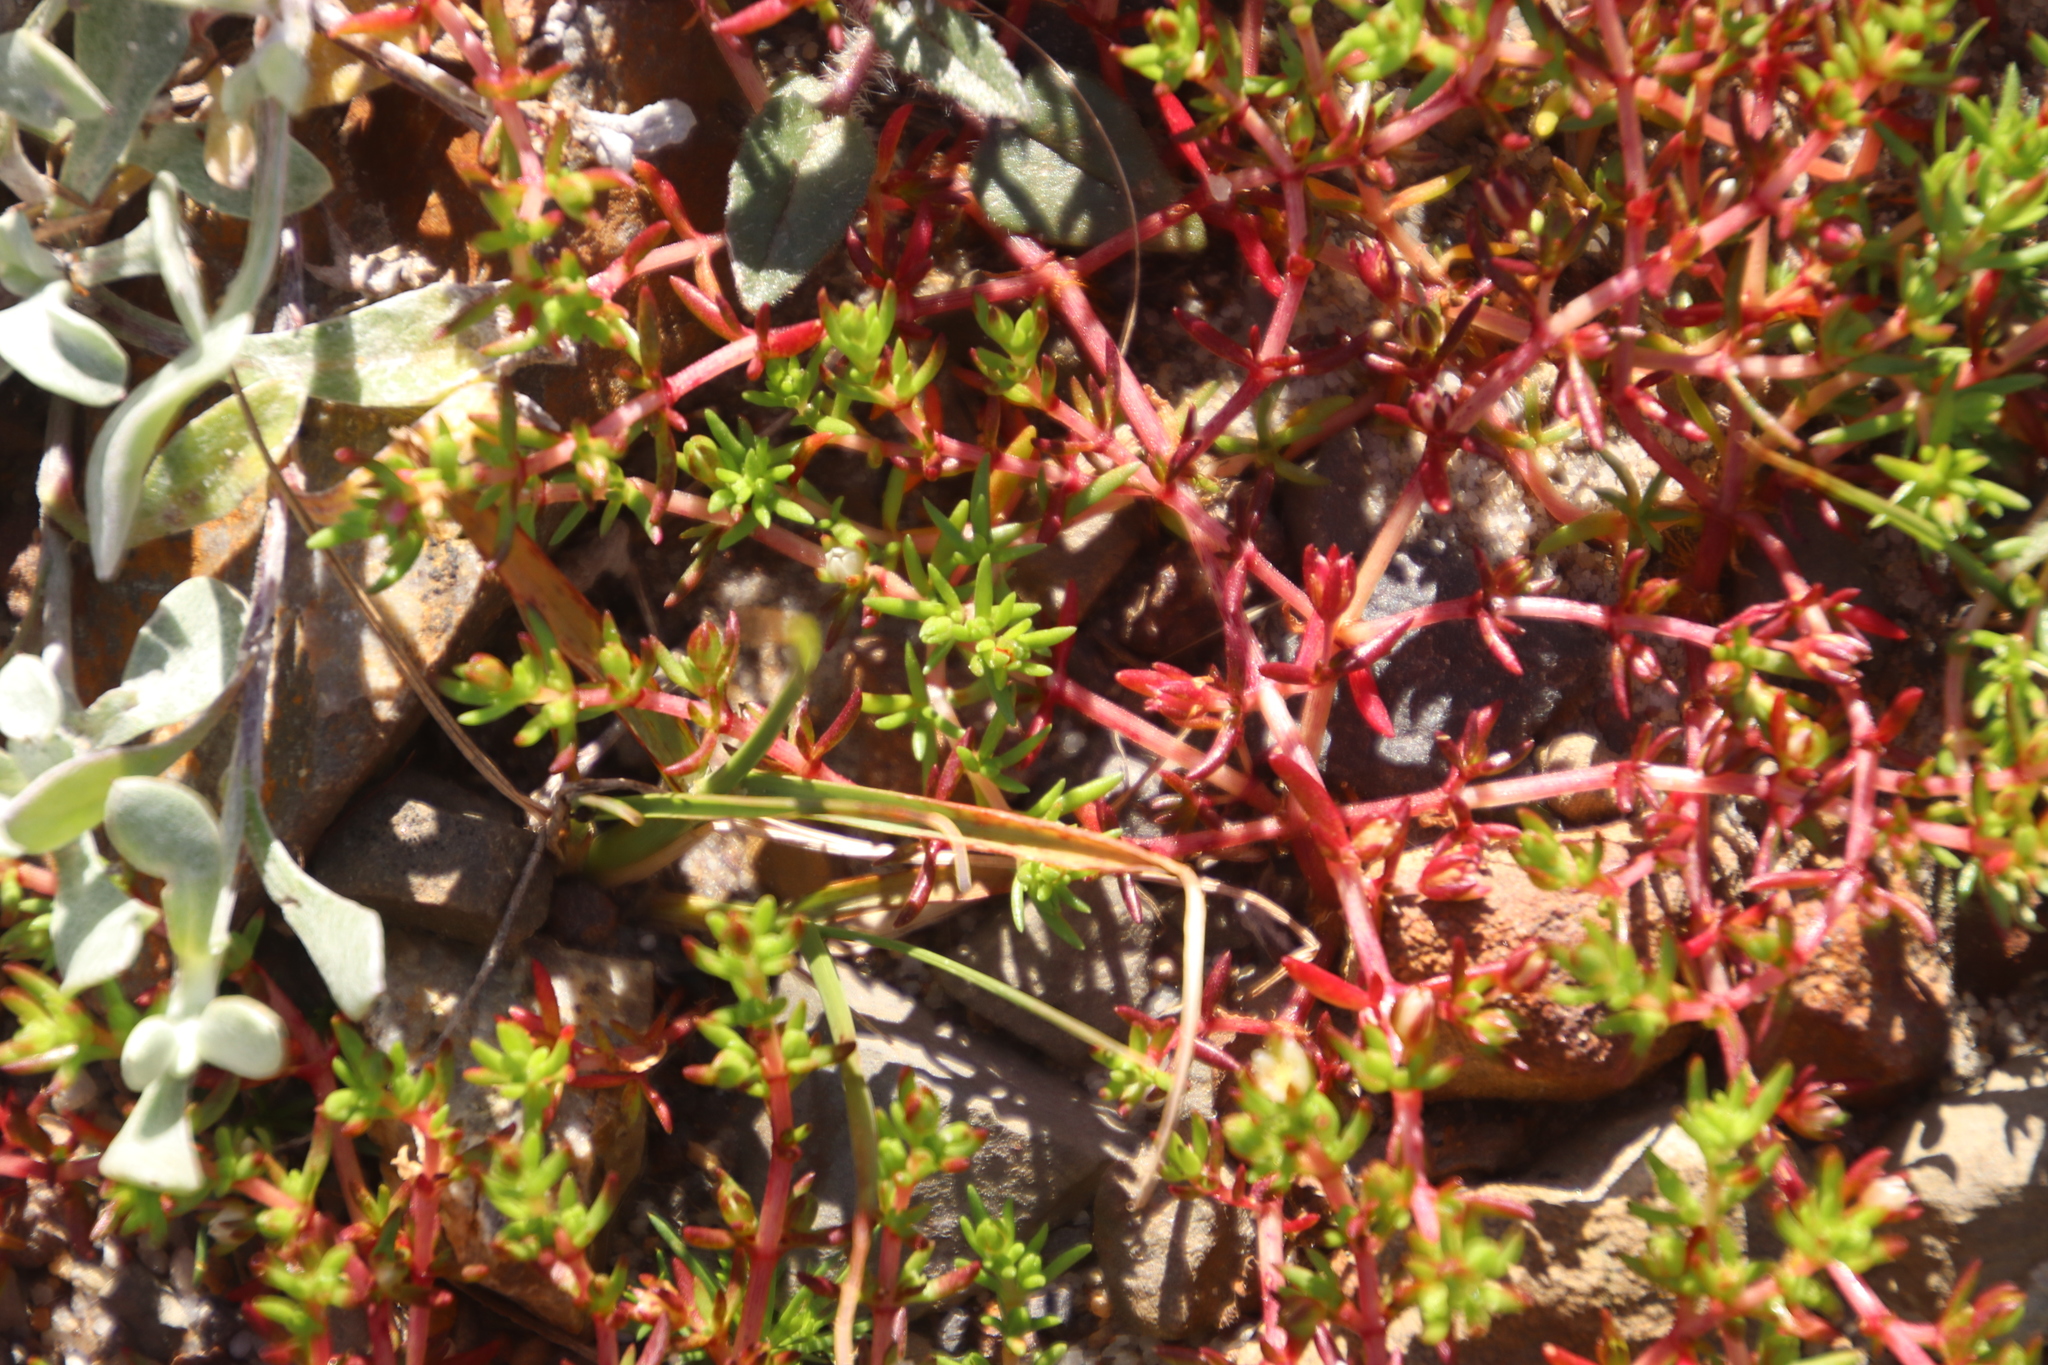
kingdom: Plantae
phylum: Tracheophyta
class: Magnoliopsida
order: Saxifragales
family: Crassulaceae
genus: Crassula
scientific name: Crassula vaillantii
